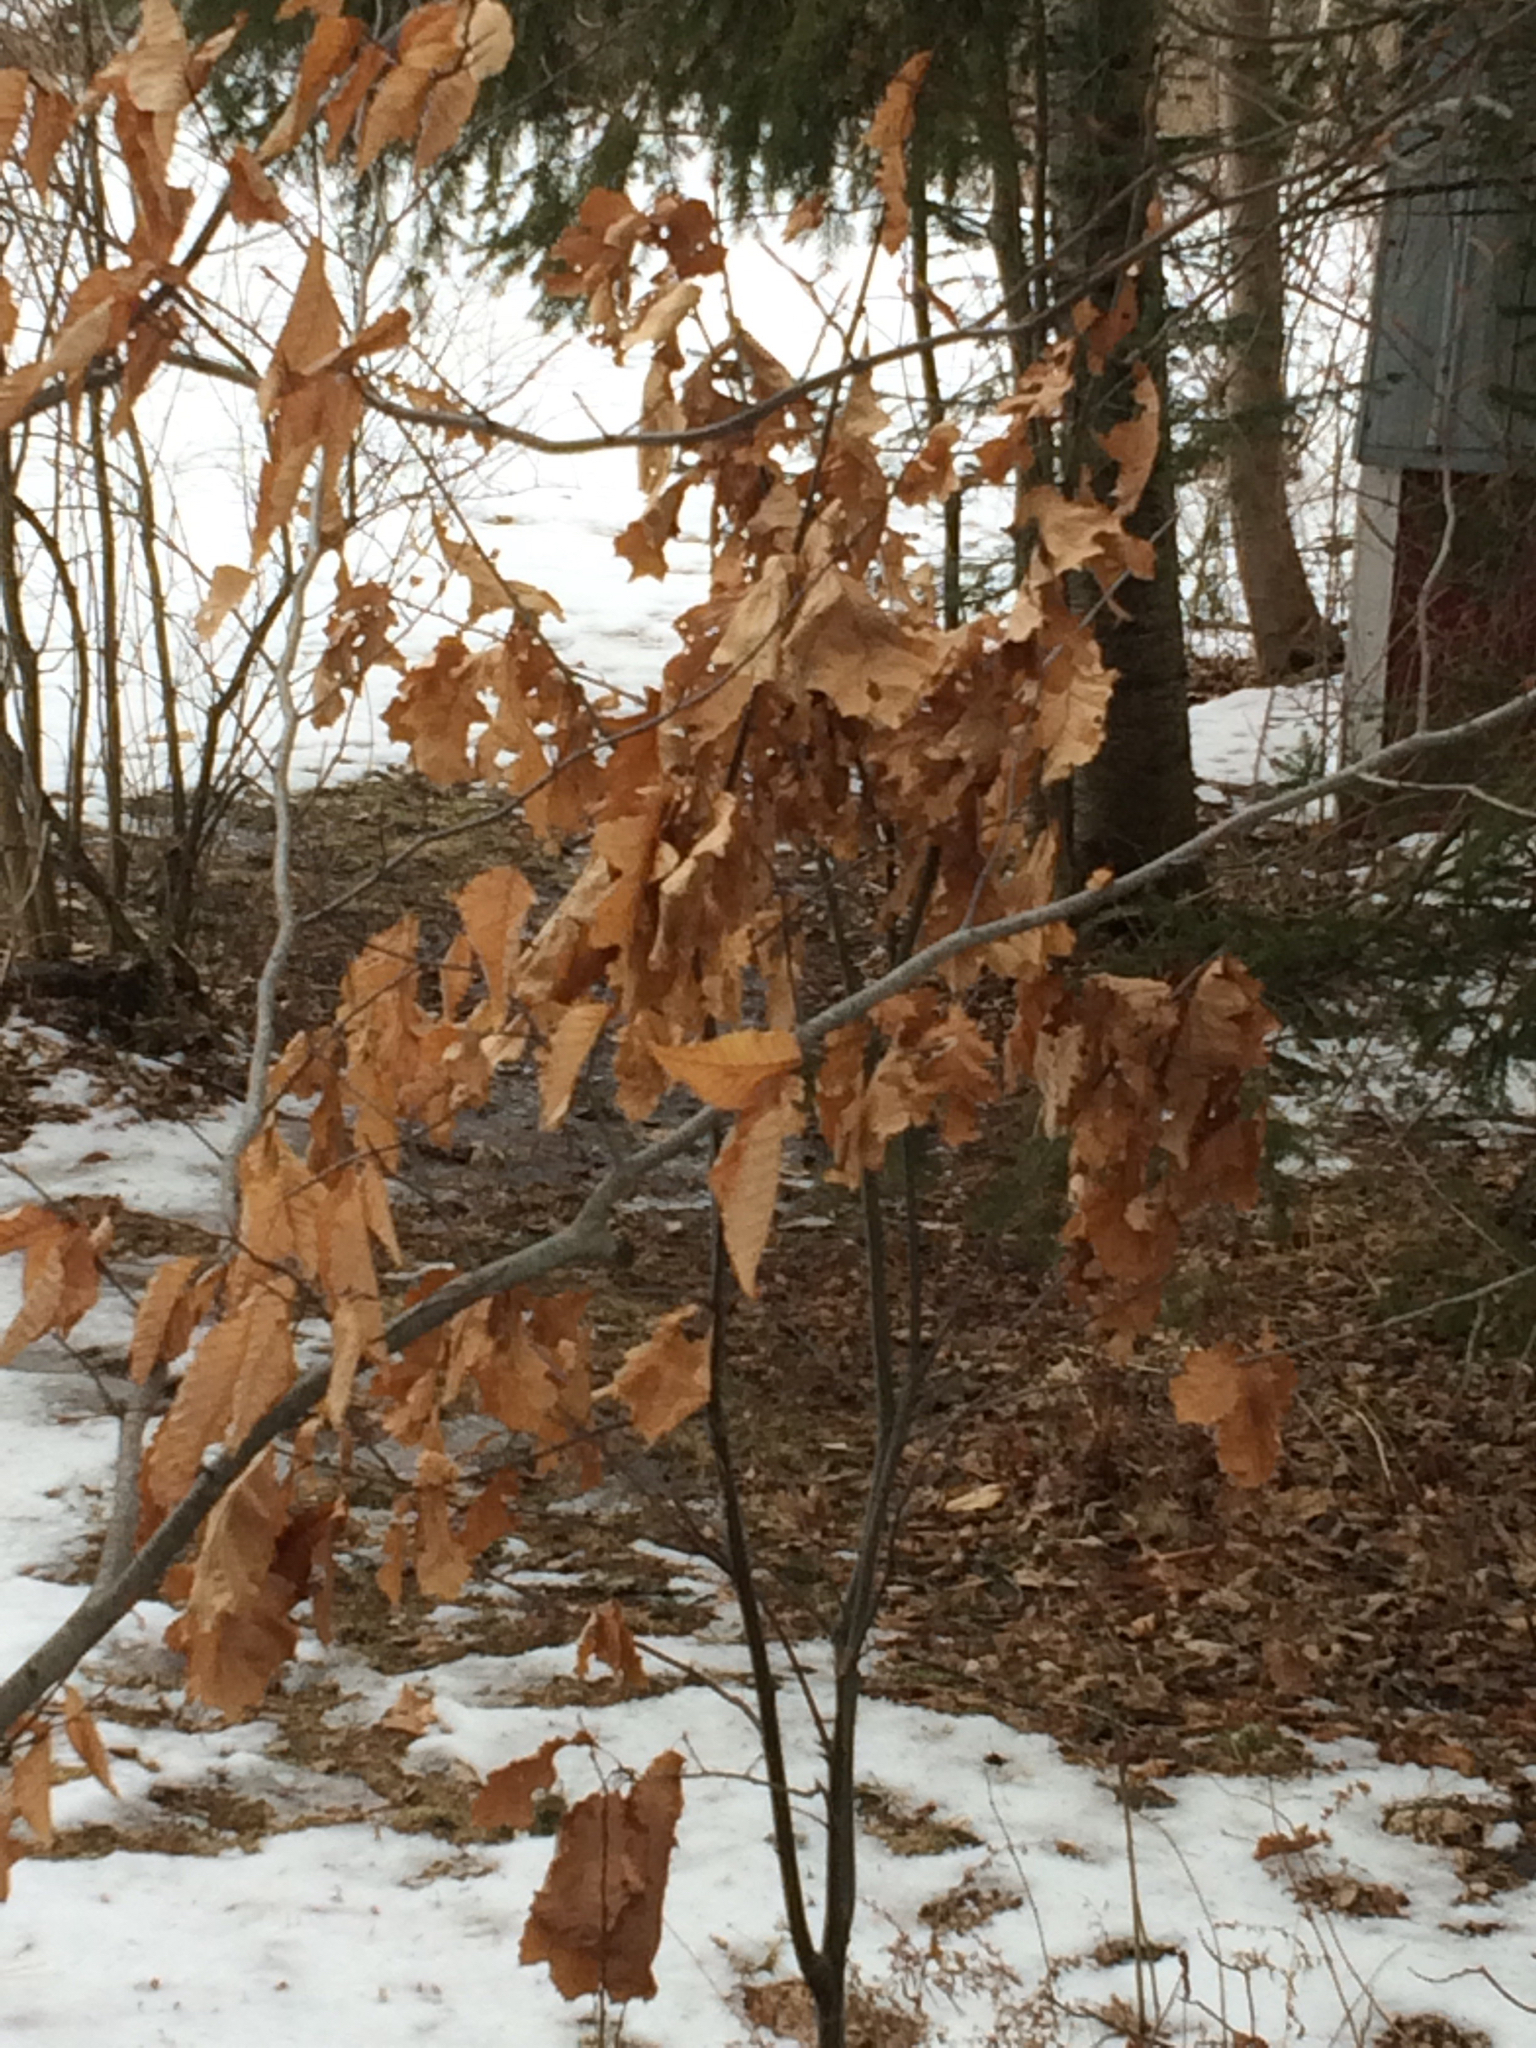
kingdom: Plantae
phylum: Tracheophyta
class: Magnoliopsida
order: Fagales
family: Fagaceae
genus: Quercus
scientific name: Quercus rubra
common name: Red oak
